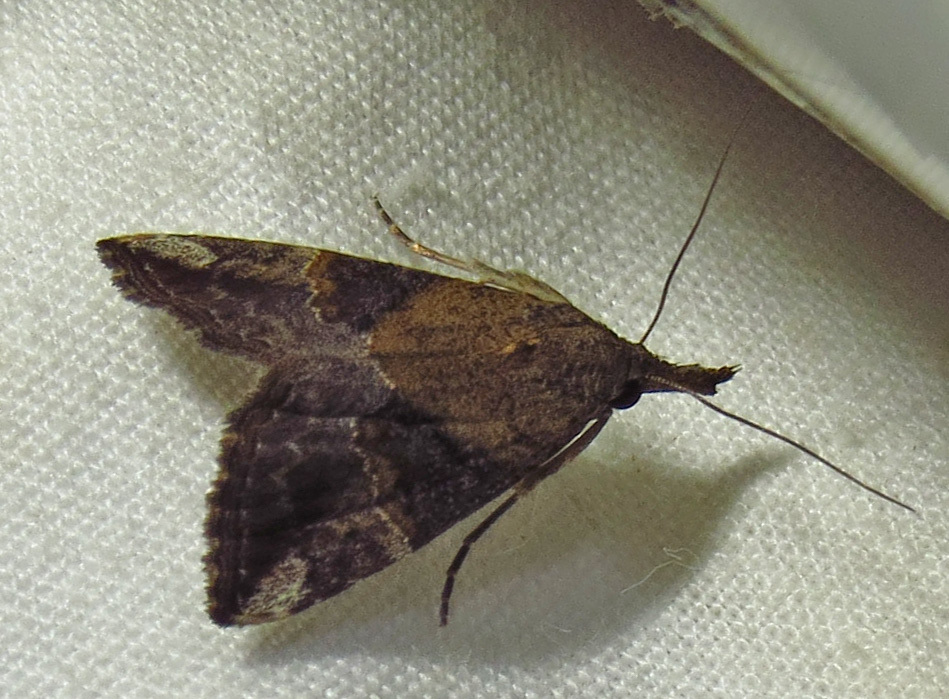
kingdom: Animalia
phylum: Arthropoda
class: Insecta
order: Lepidoptera
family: Erebidae
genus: Hypena
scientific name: Hypena minualis
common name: Sooty snout
